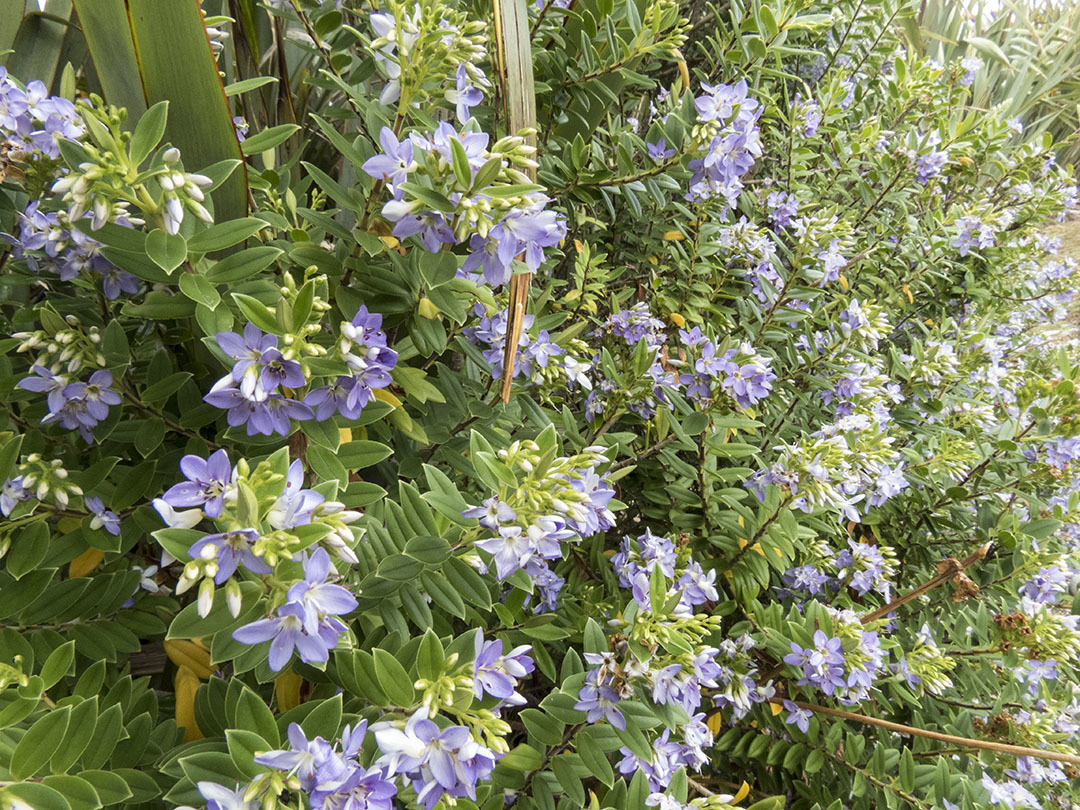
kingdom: Plantae
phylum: Tracheophyta
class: Magnoliopsida
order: Lamiales
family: Plantaginaceae
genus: Veronica
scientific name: Veronica elliptica
